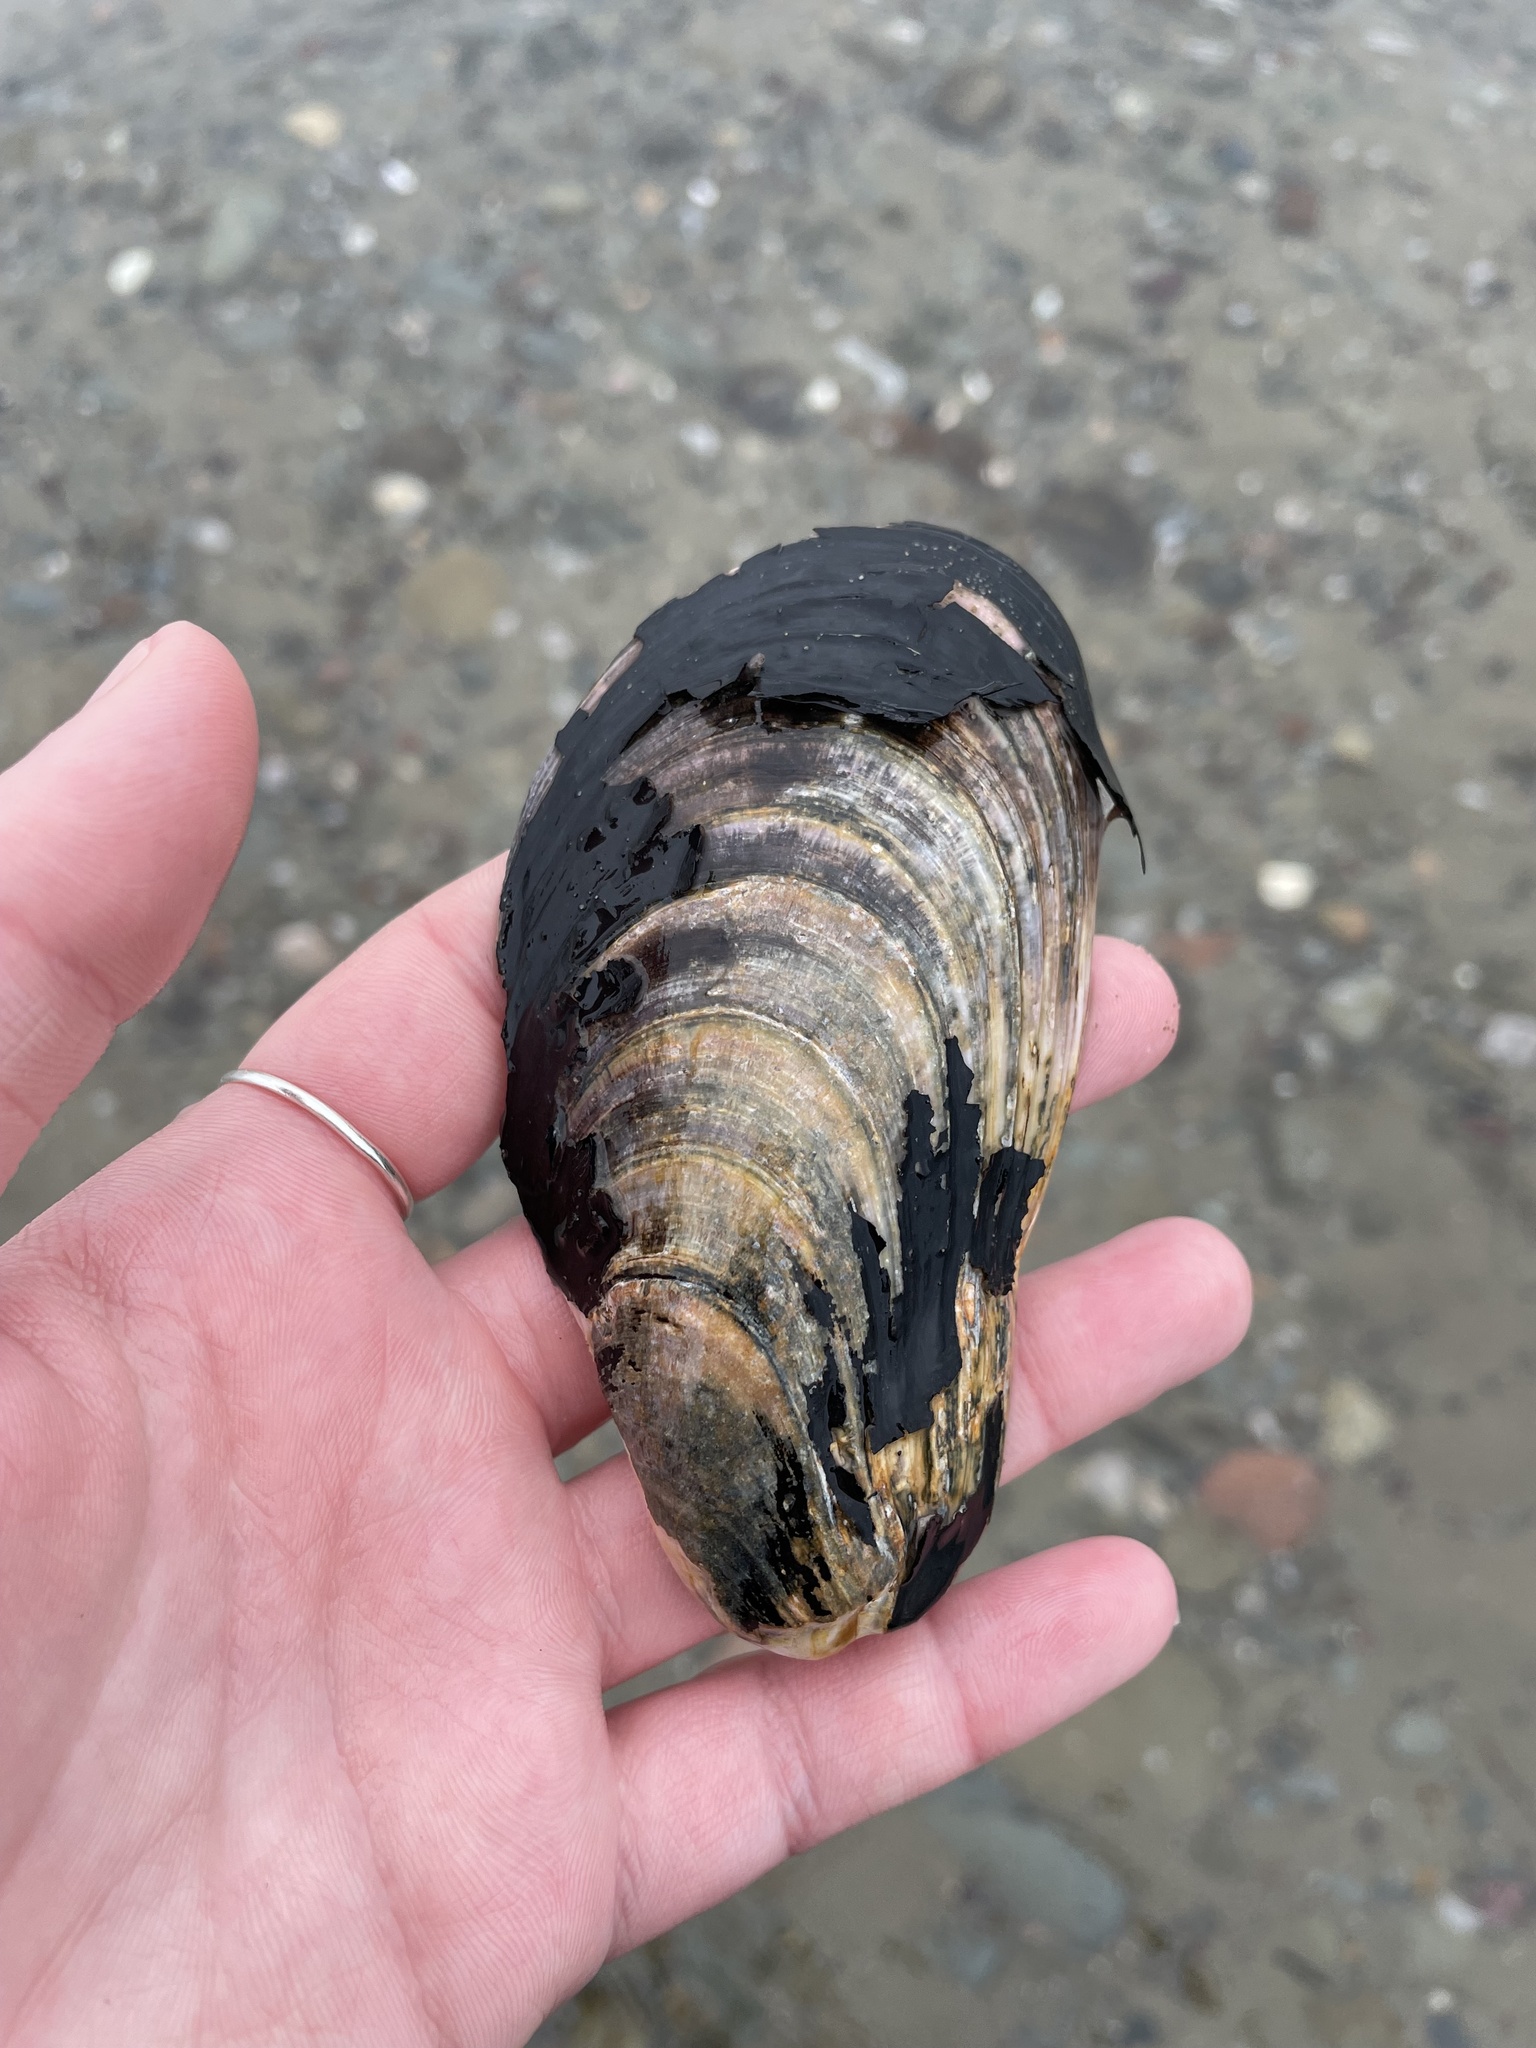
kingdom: Animalia
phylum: Mollusca
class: Bivalvia
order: Mytilida
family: Mytilidae
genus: Modiolus
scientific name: Modiolus modiolus
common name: Horse-mussel
